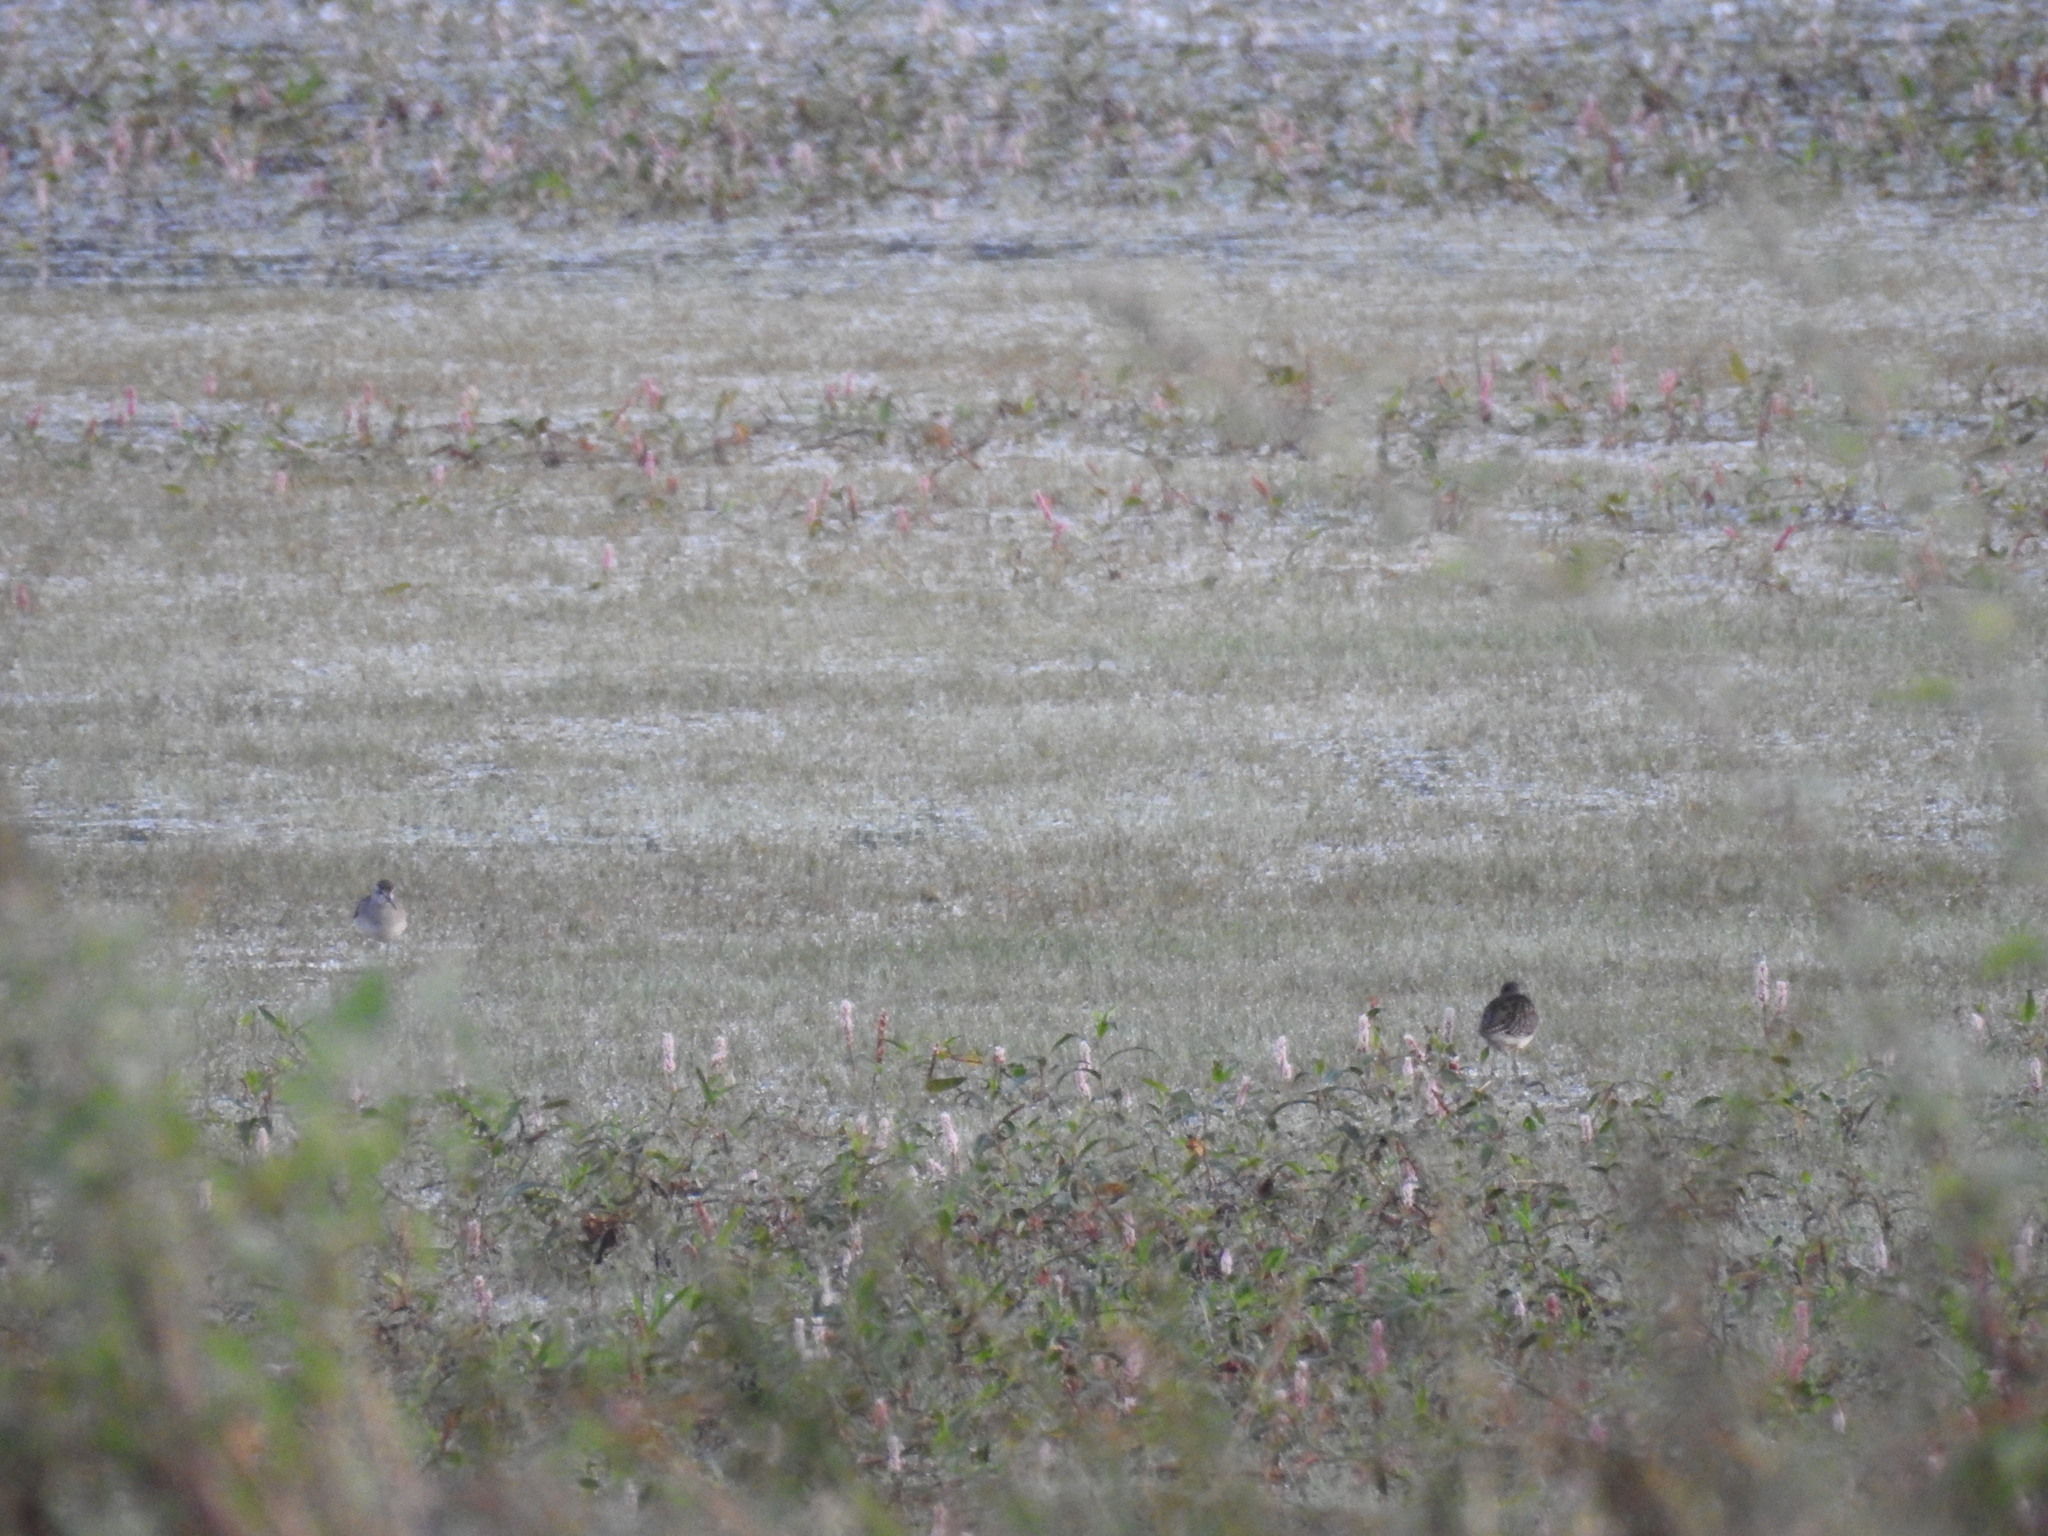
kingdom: Animalia
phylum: Chordata
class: Aves
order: Charadriiformes
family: Scolopacidae
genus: Tringa
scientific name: Tringa glareola
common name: Wood sandpiper
